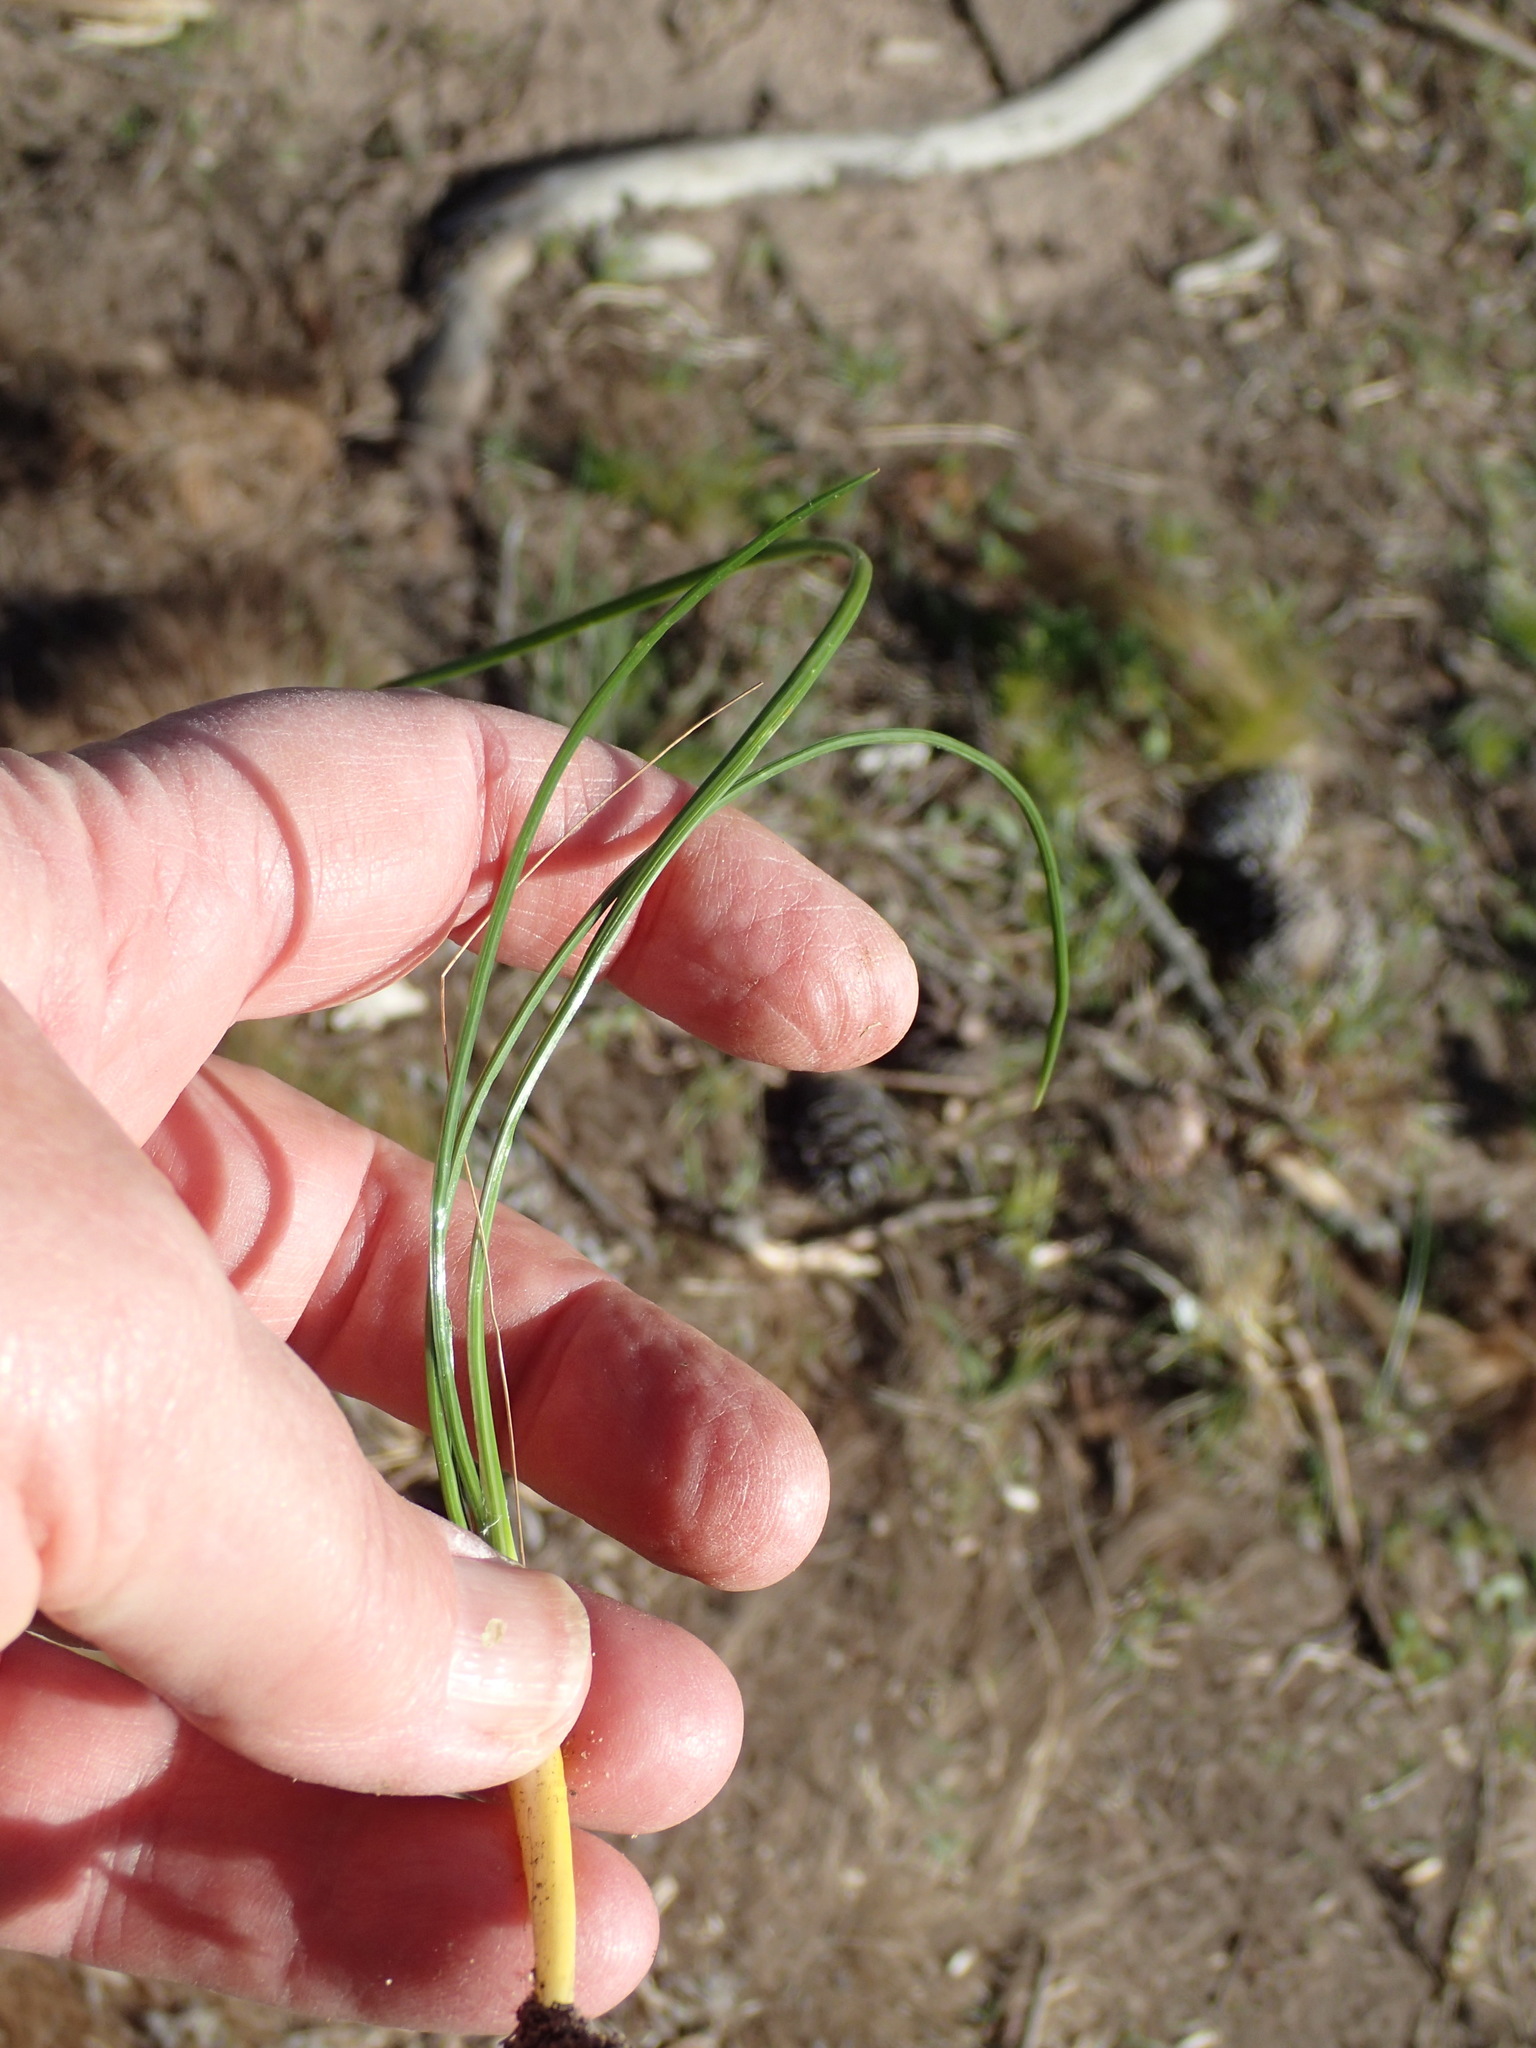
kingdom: Plantae
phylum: Tracheophyta
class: Liliopsida
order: Asparagales
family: Iridaceae
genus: Romulea
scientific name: Romulea setifolia
